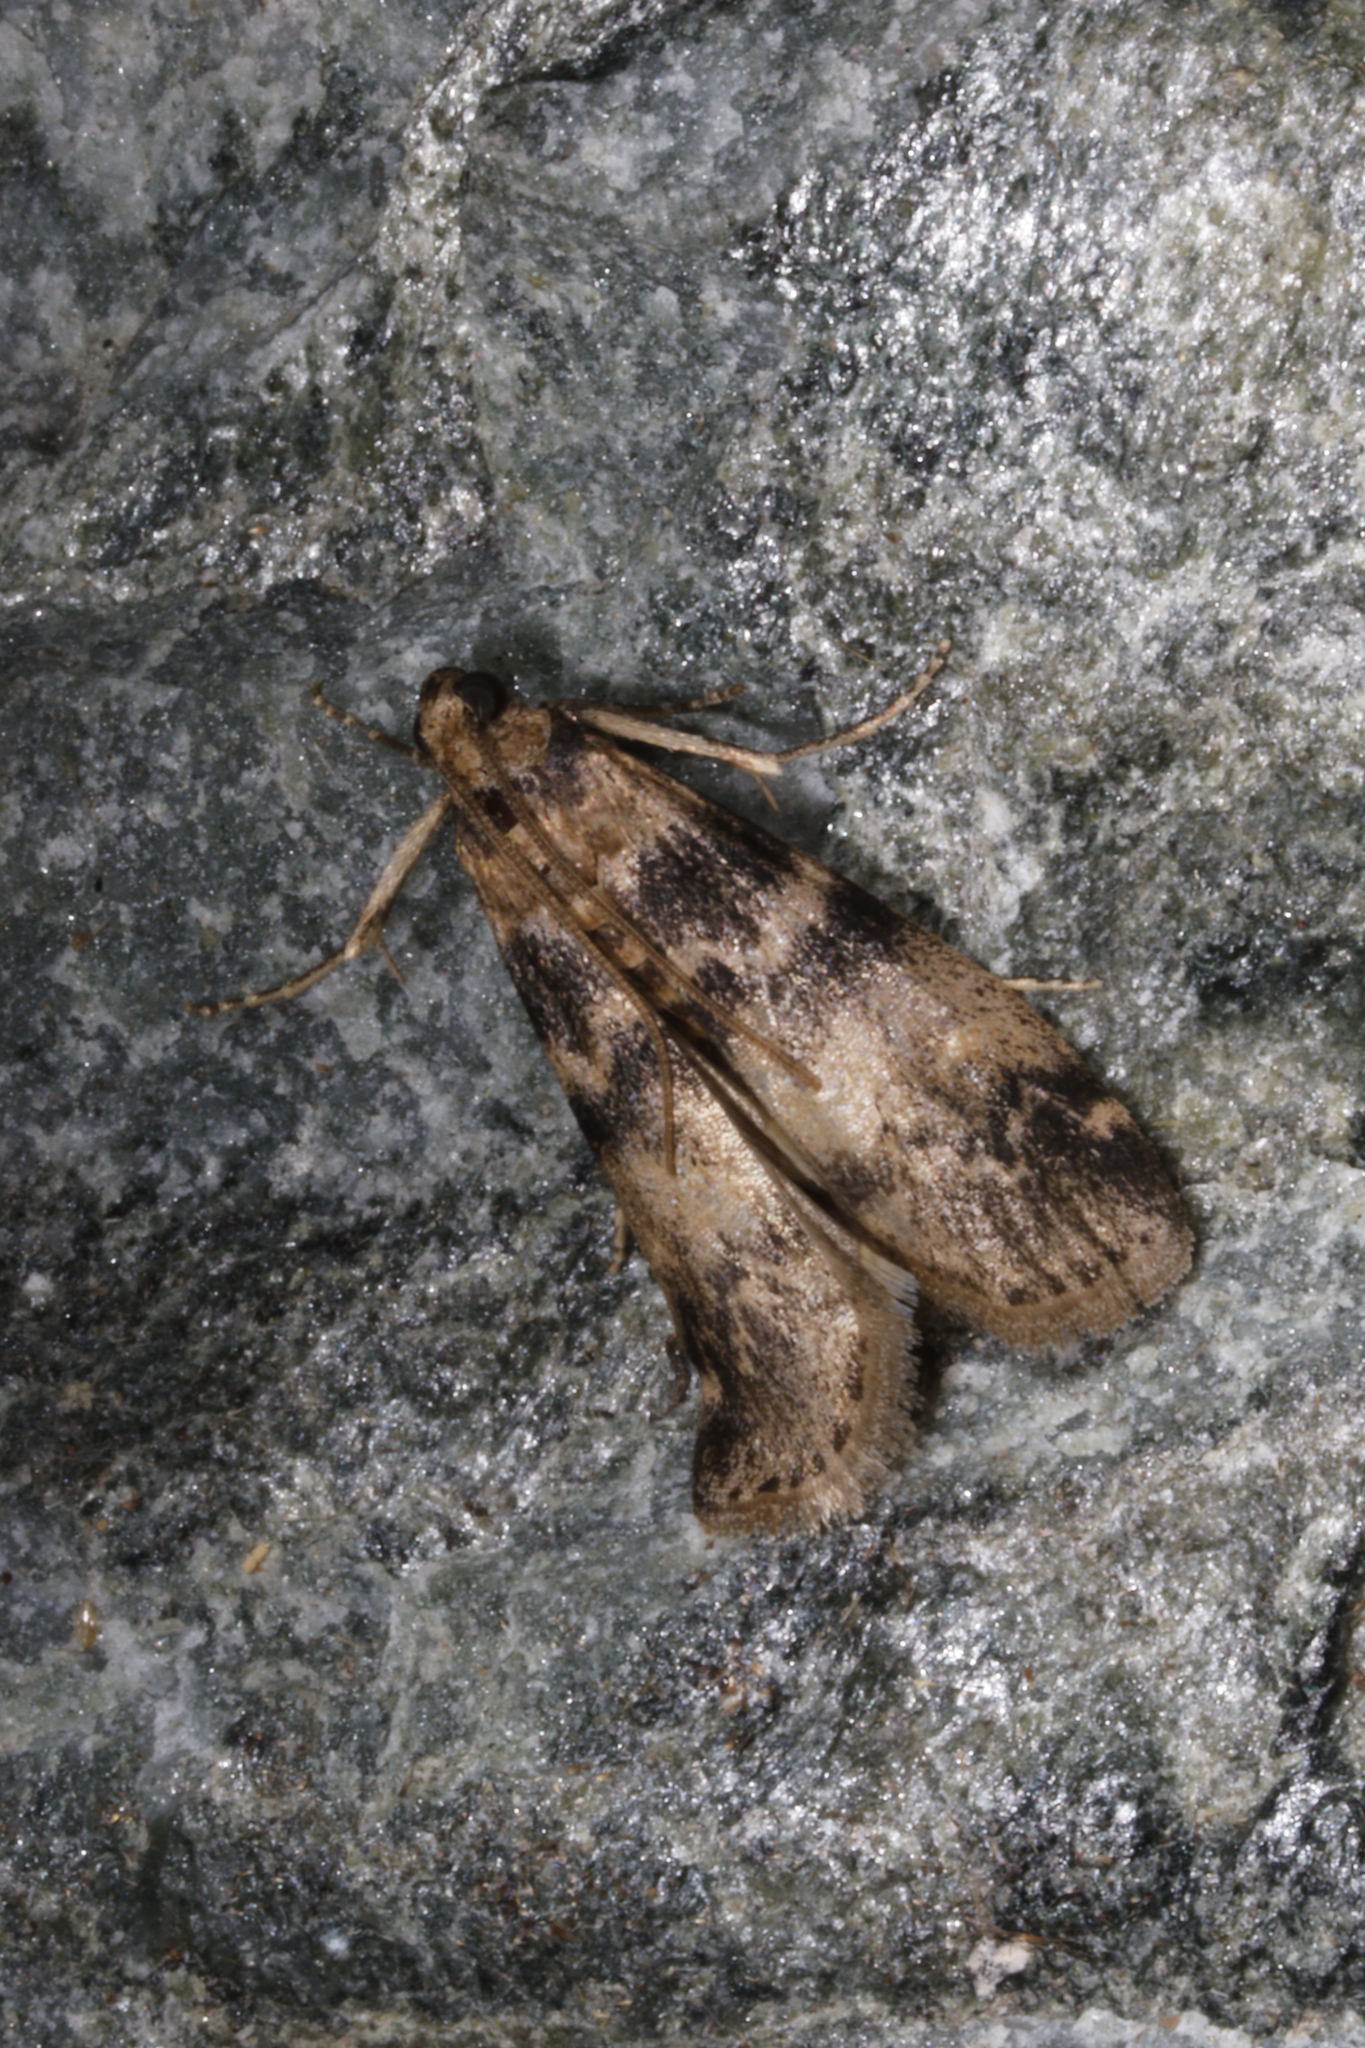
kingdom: Animalia
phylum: Arthropoda
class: Insecta
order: Lepidoptera
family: Pyralidae
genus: Euzophera
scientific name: Euzophera pinguis
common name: Ash-bark knot-horn
